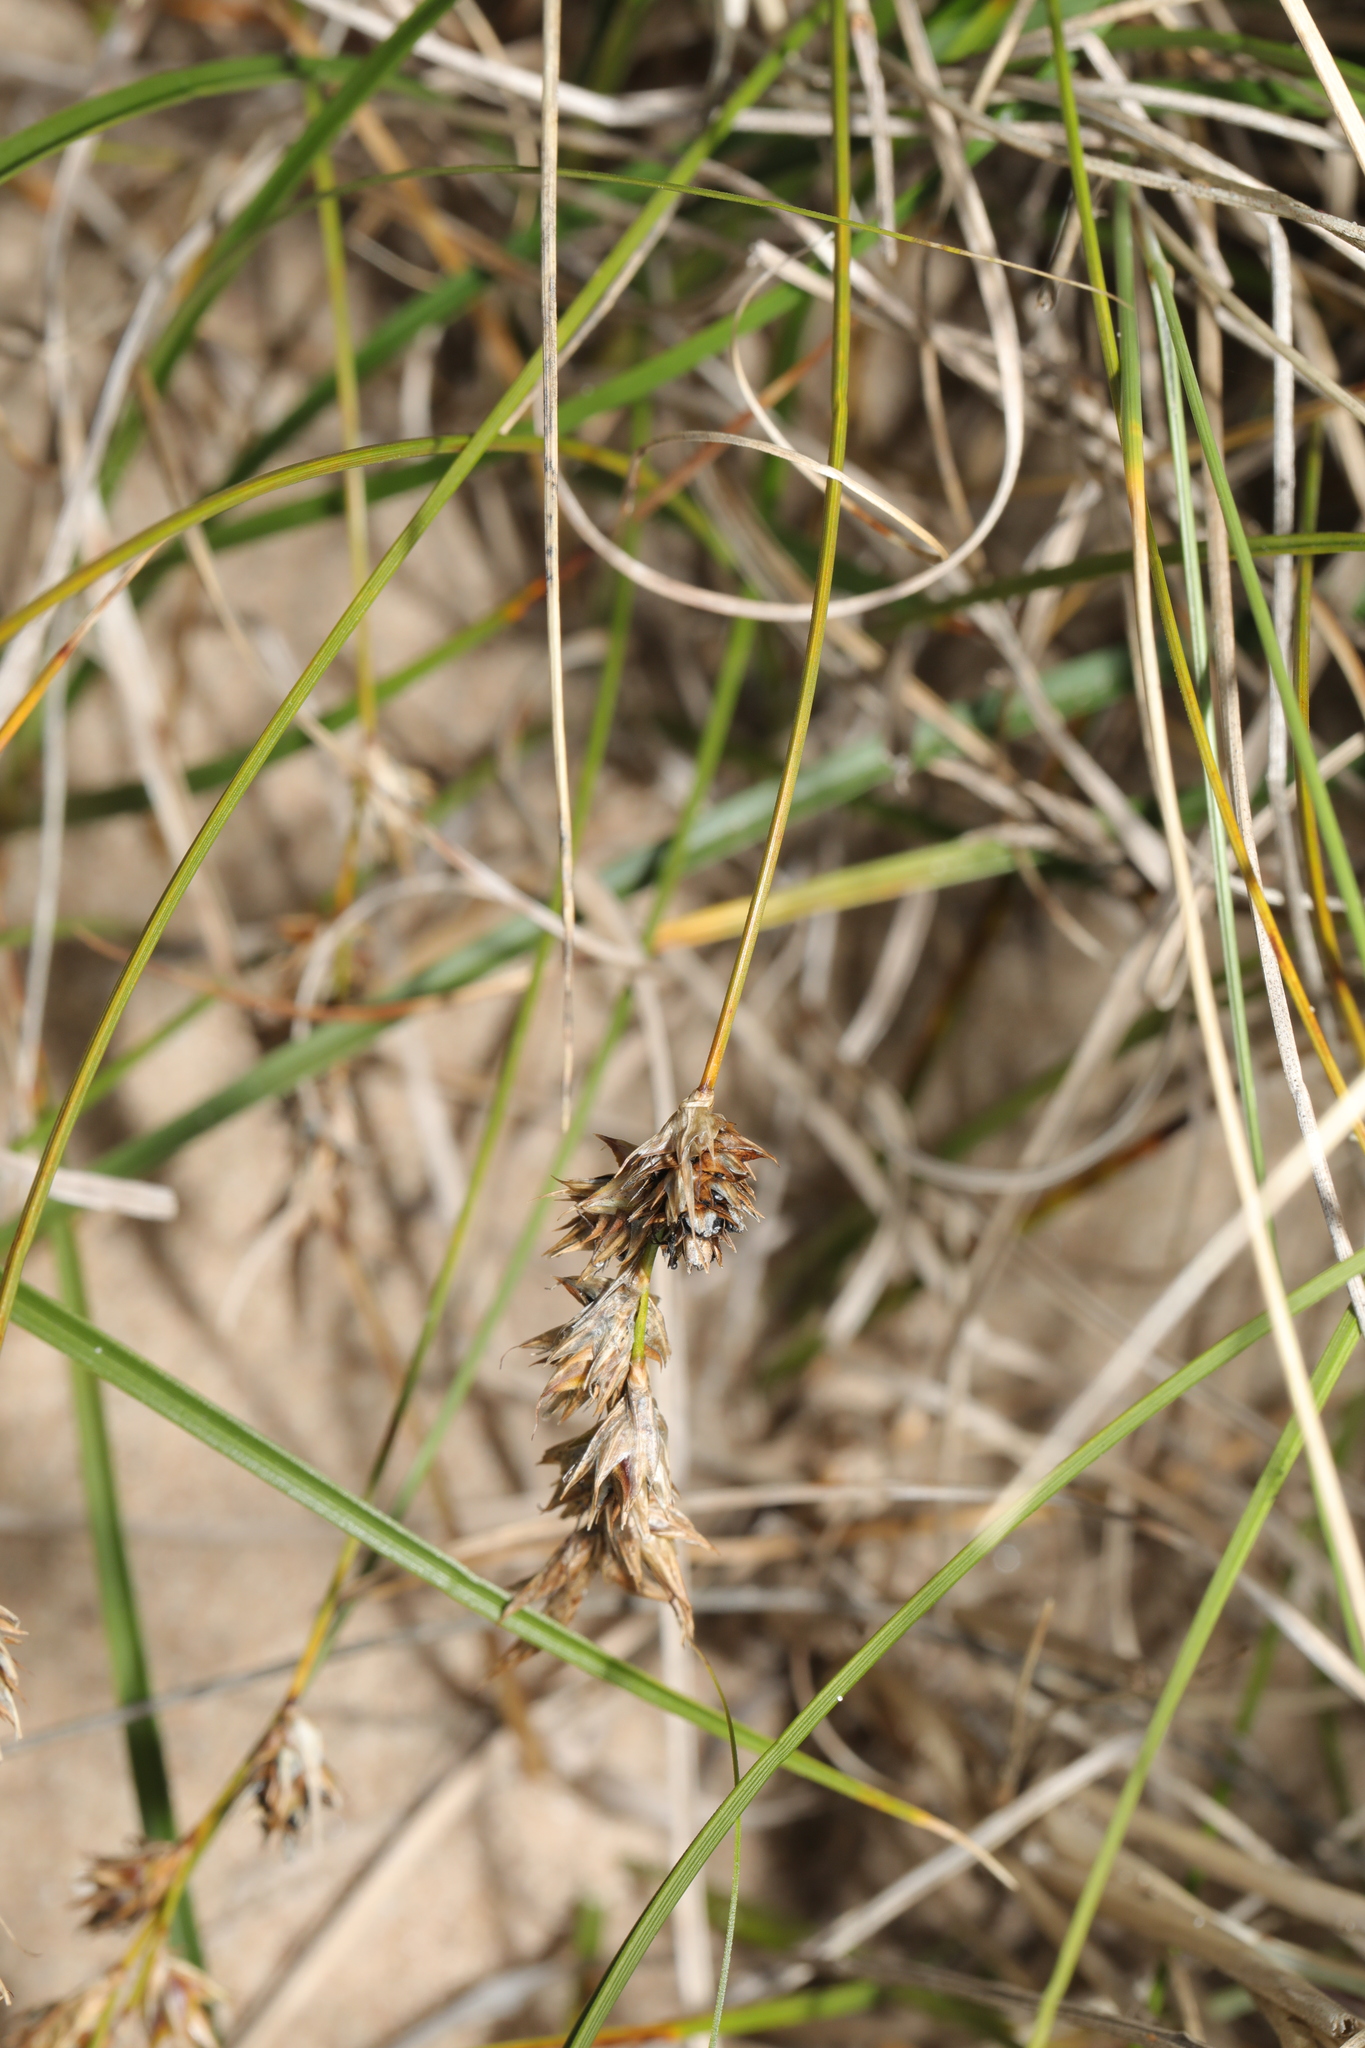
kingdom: Plantae
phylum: Tracheophyta
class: Liliopsida
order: Poales
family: Cyperaceae
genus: Carex
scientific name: Carex arenaria
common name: Sand sedge
